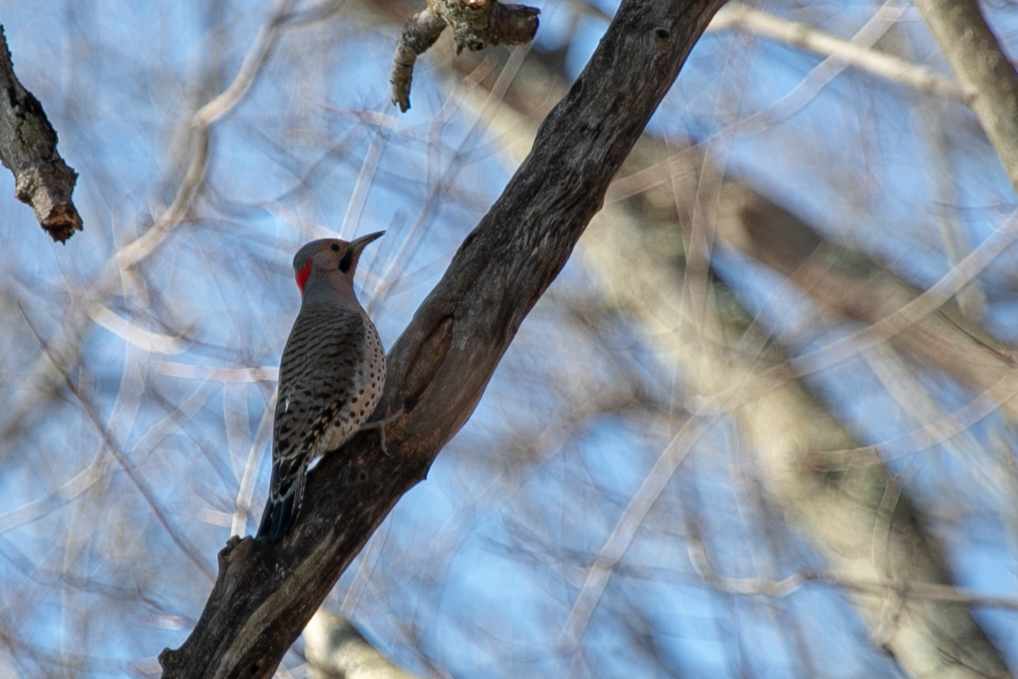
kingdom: Animalia
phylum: Chordata
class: Aves
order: Piciformes
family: Picidae
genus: Colaptes
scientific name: Colaptes auratus
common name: Northern flicker
